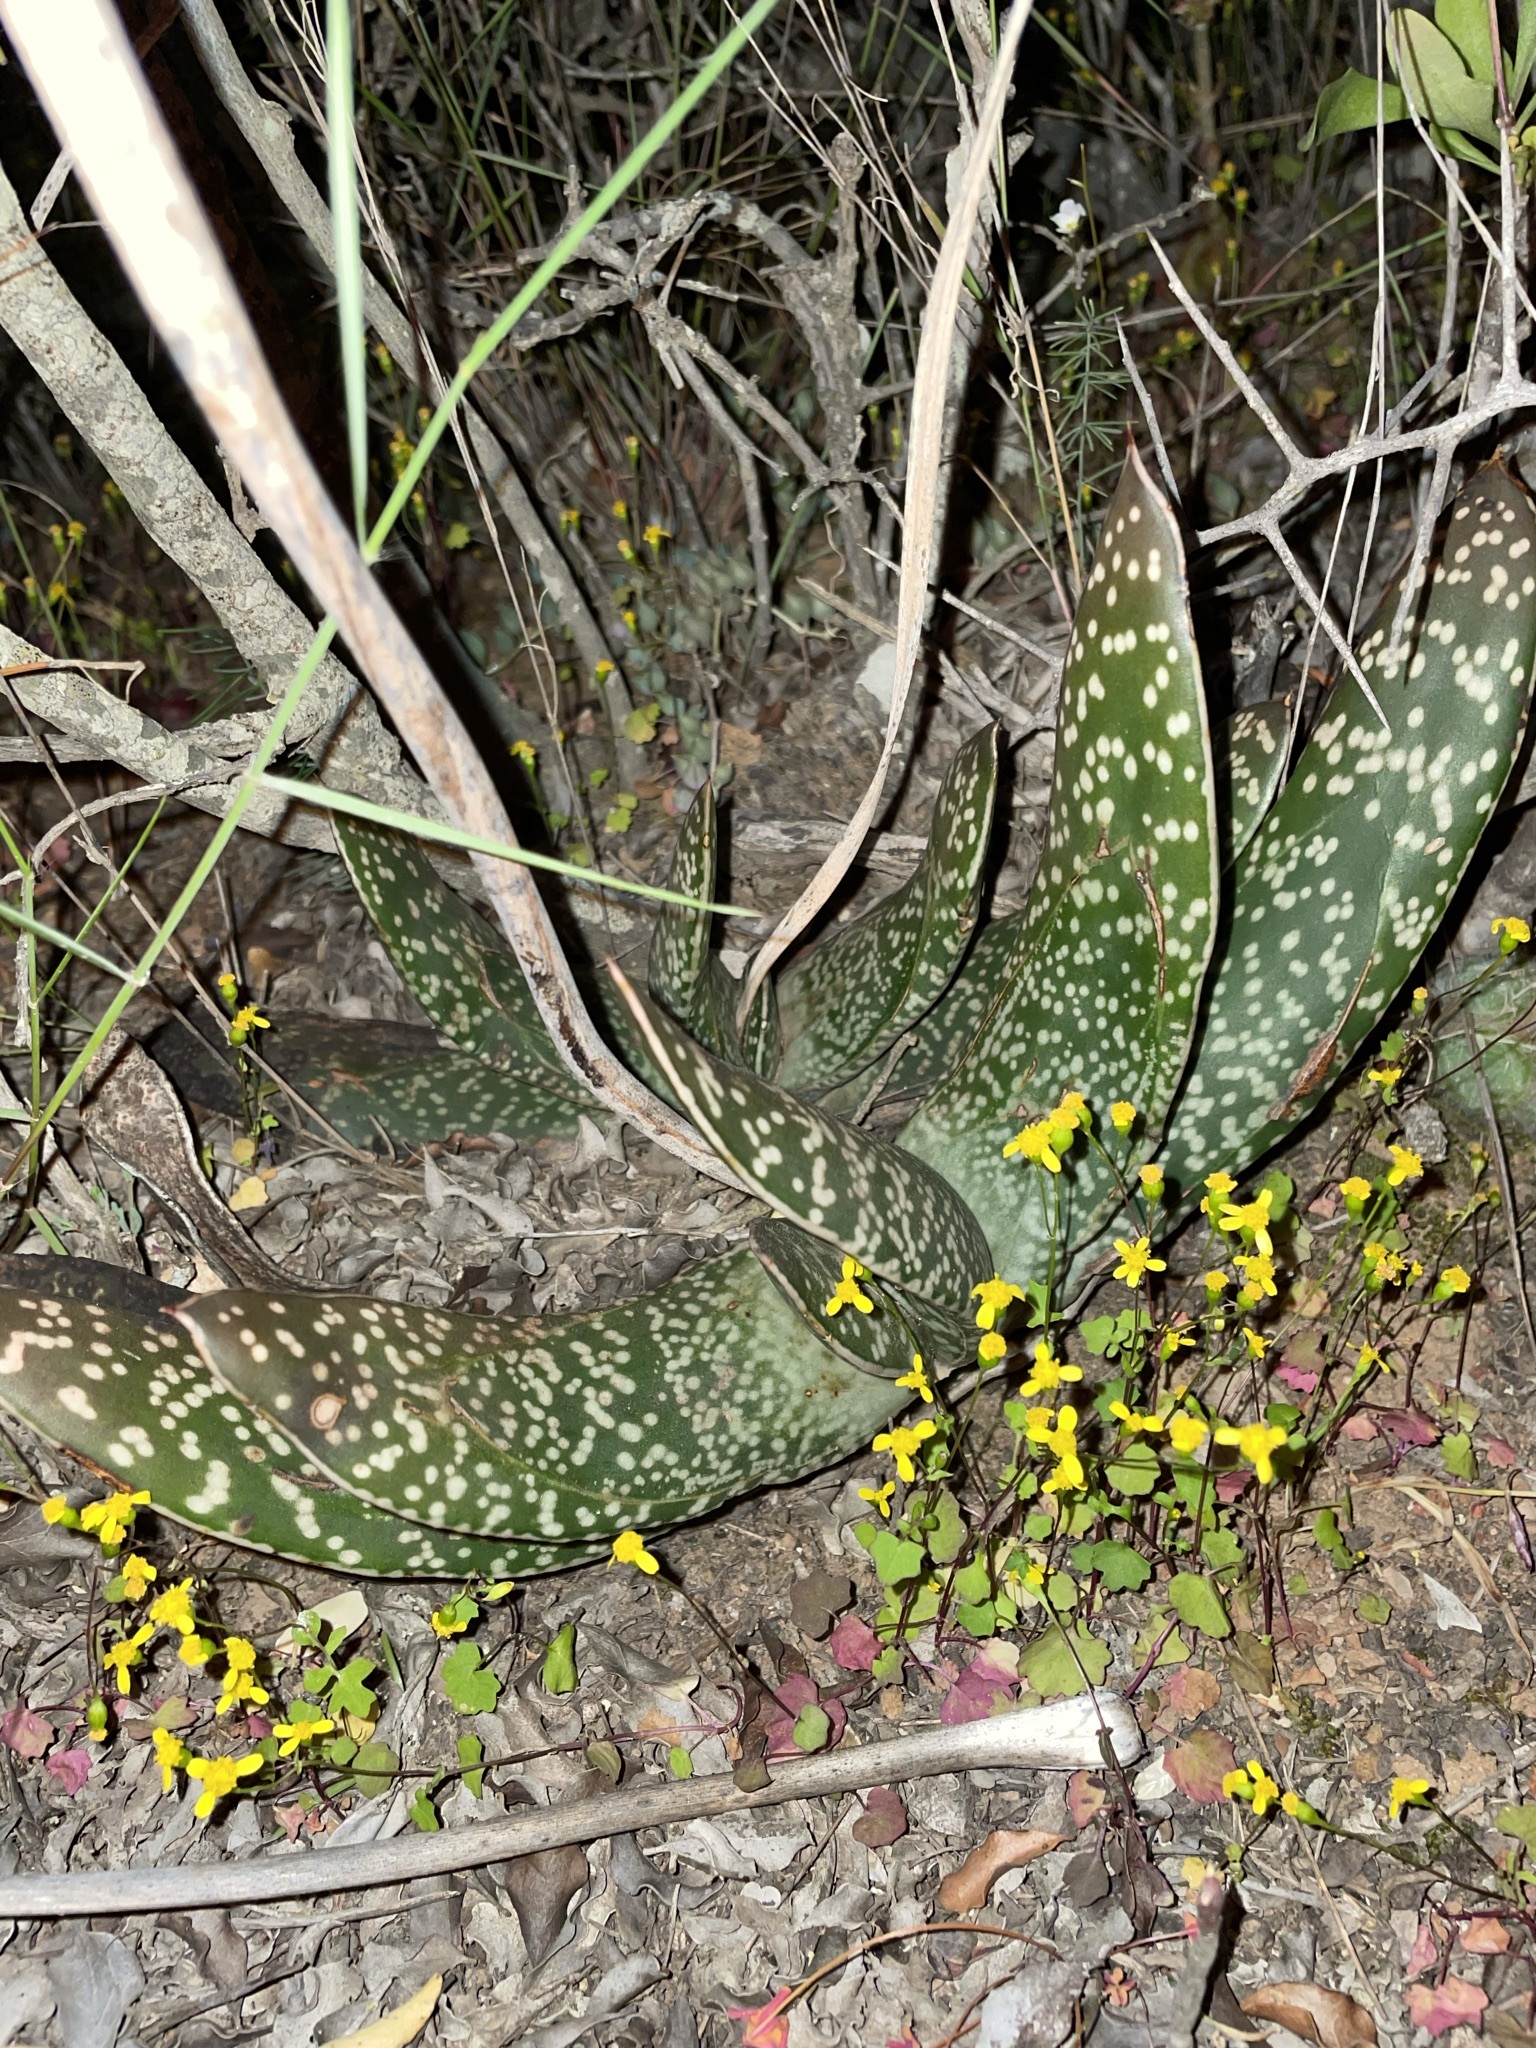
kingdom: Plantae
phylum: Tracheophyta
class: Liliopsida
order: Asparagales
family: Asphodelaceae
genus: Gasteria
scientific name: Gasteria brachyphylla
